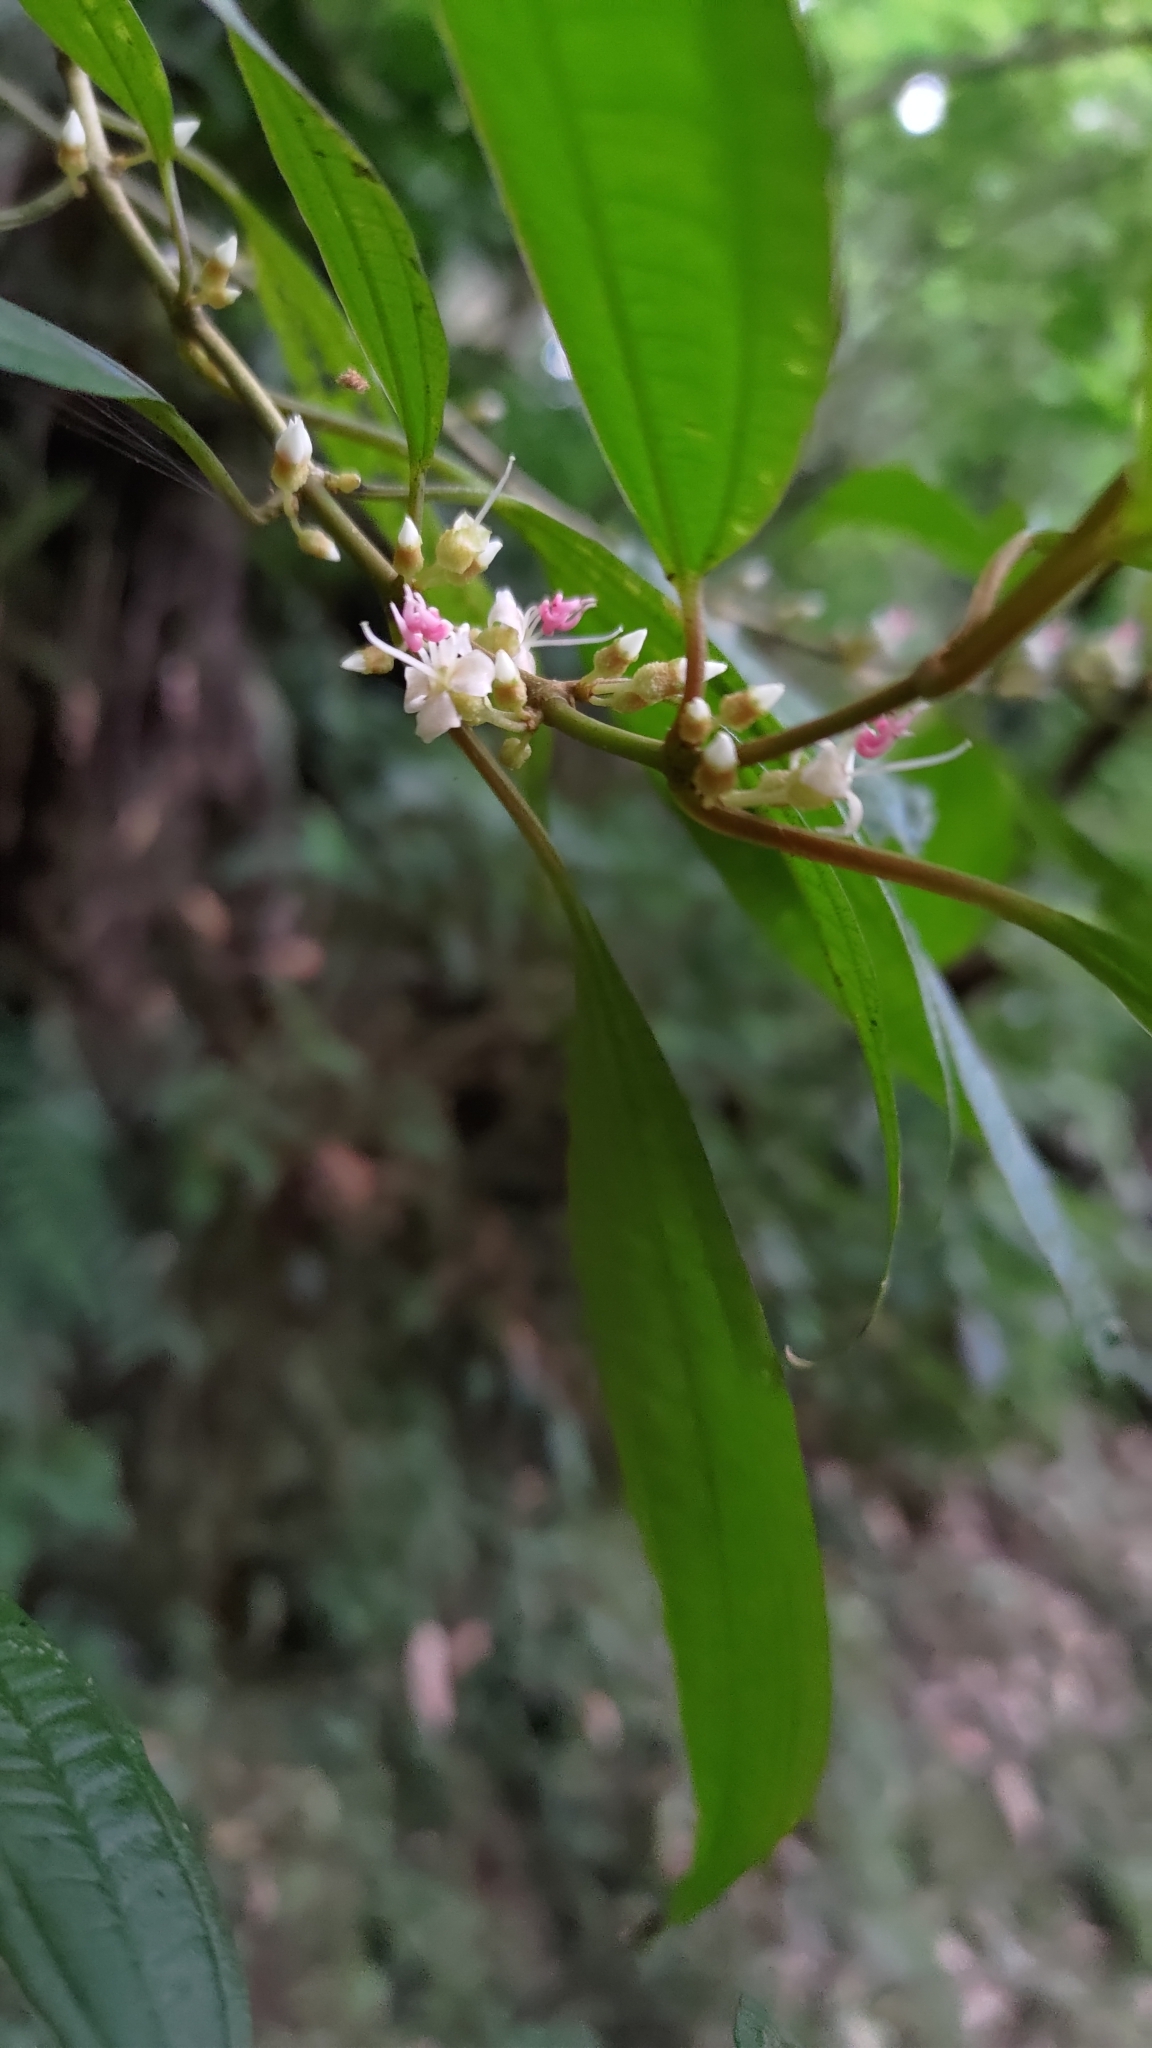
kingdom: Plantae
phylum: Tracheophyta
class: Magnoliopsida
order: Myrtales
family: Melastomataceae
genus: Blastus
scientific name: Blastus cochinchinensis
